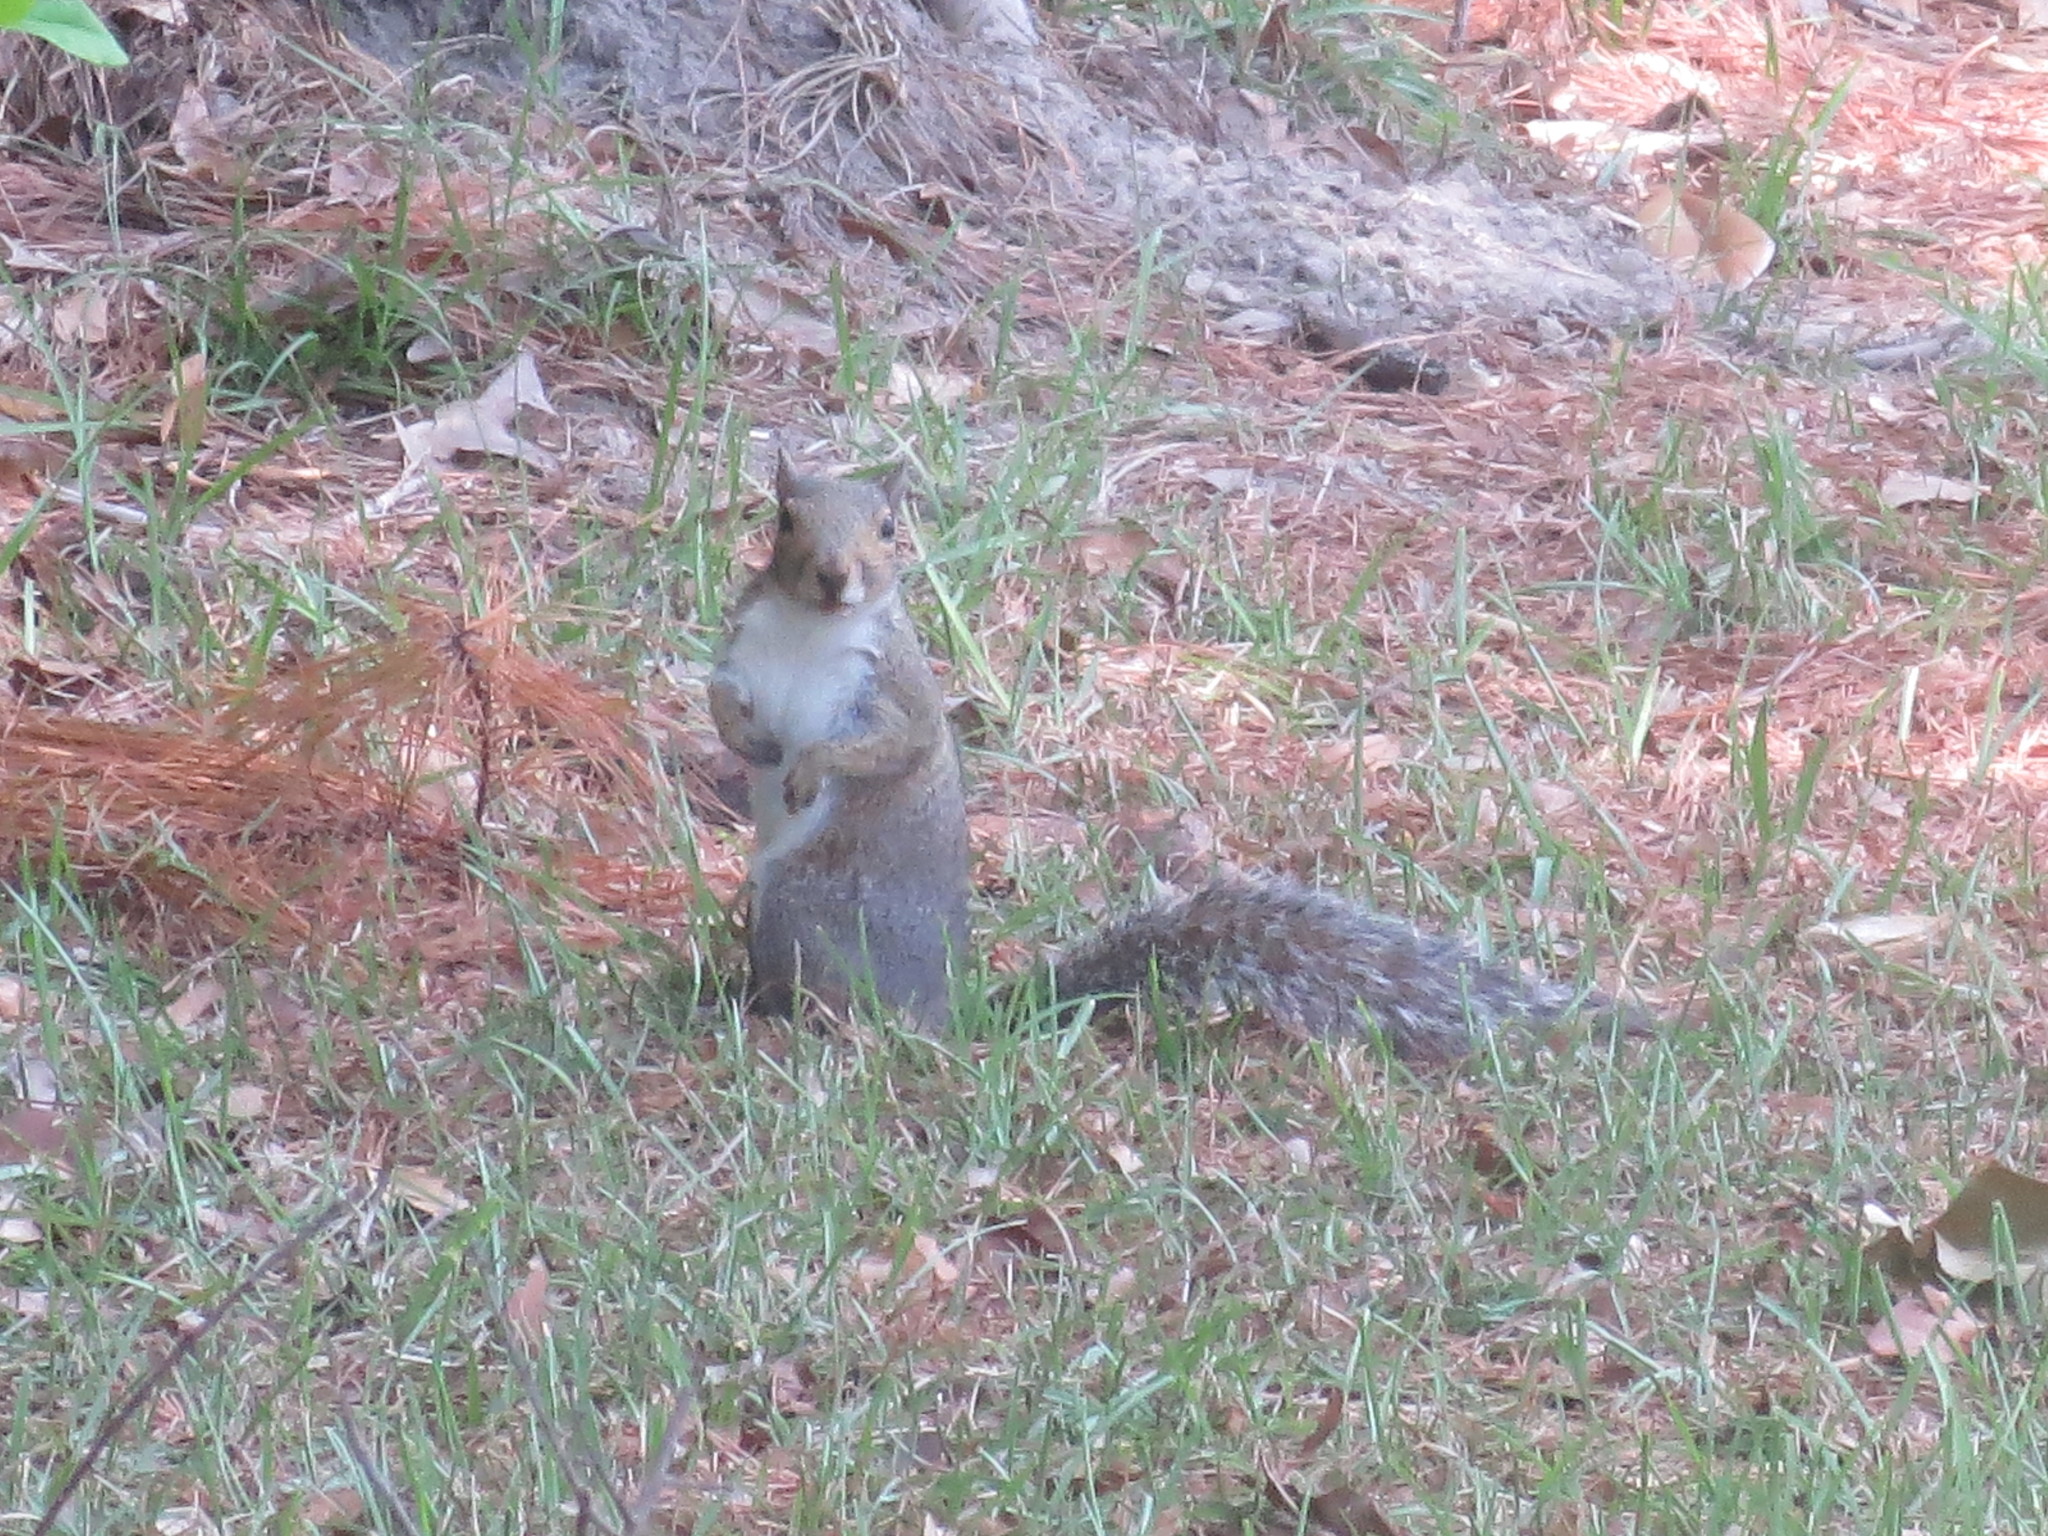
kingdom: Animalia
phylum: Chordata
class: Mammalia
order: Rodentia
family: Sciuridae
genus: Sciurus
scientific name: Sciurus carolinensis
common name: Eastern gray squirrel
